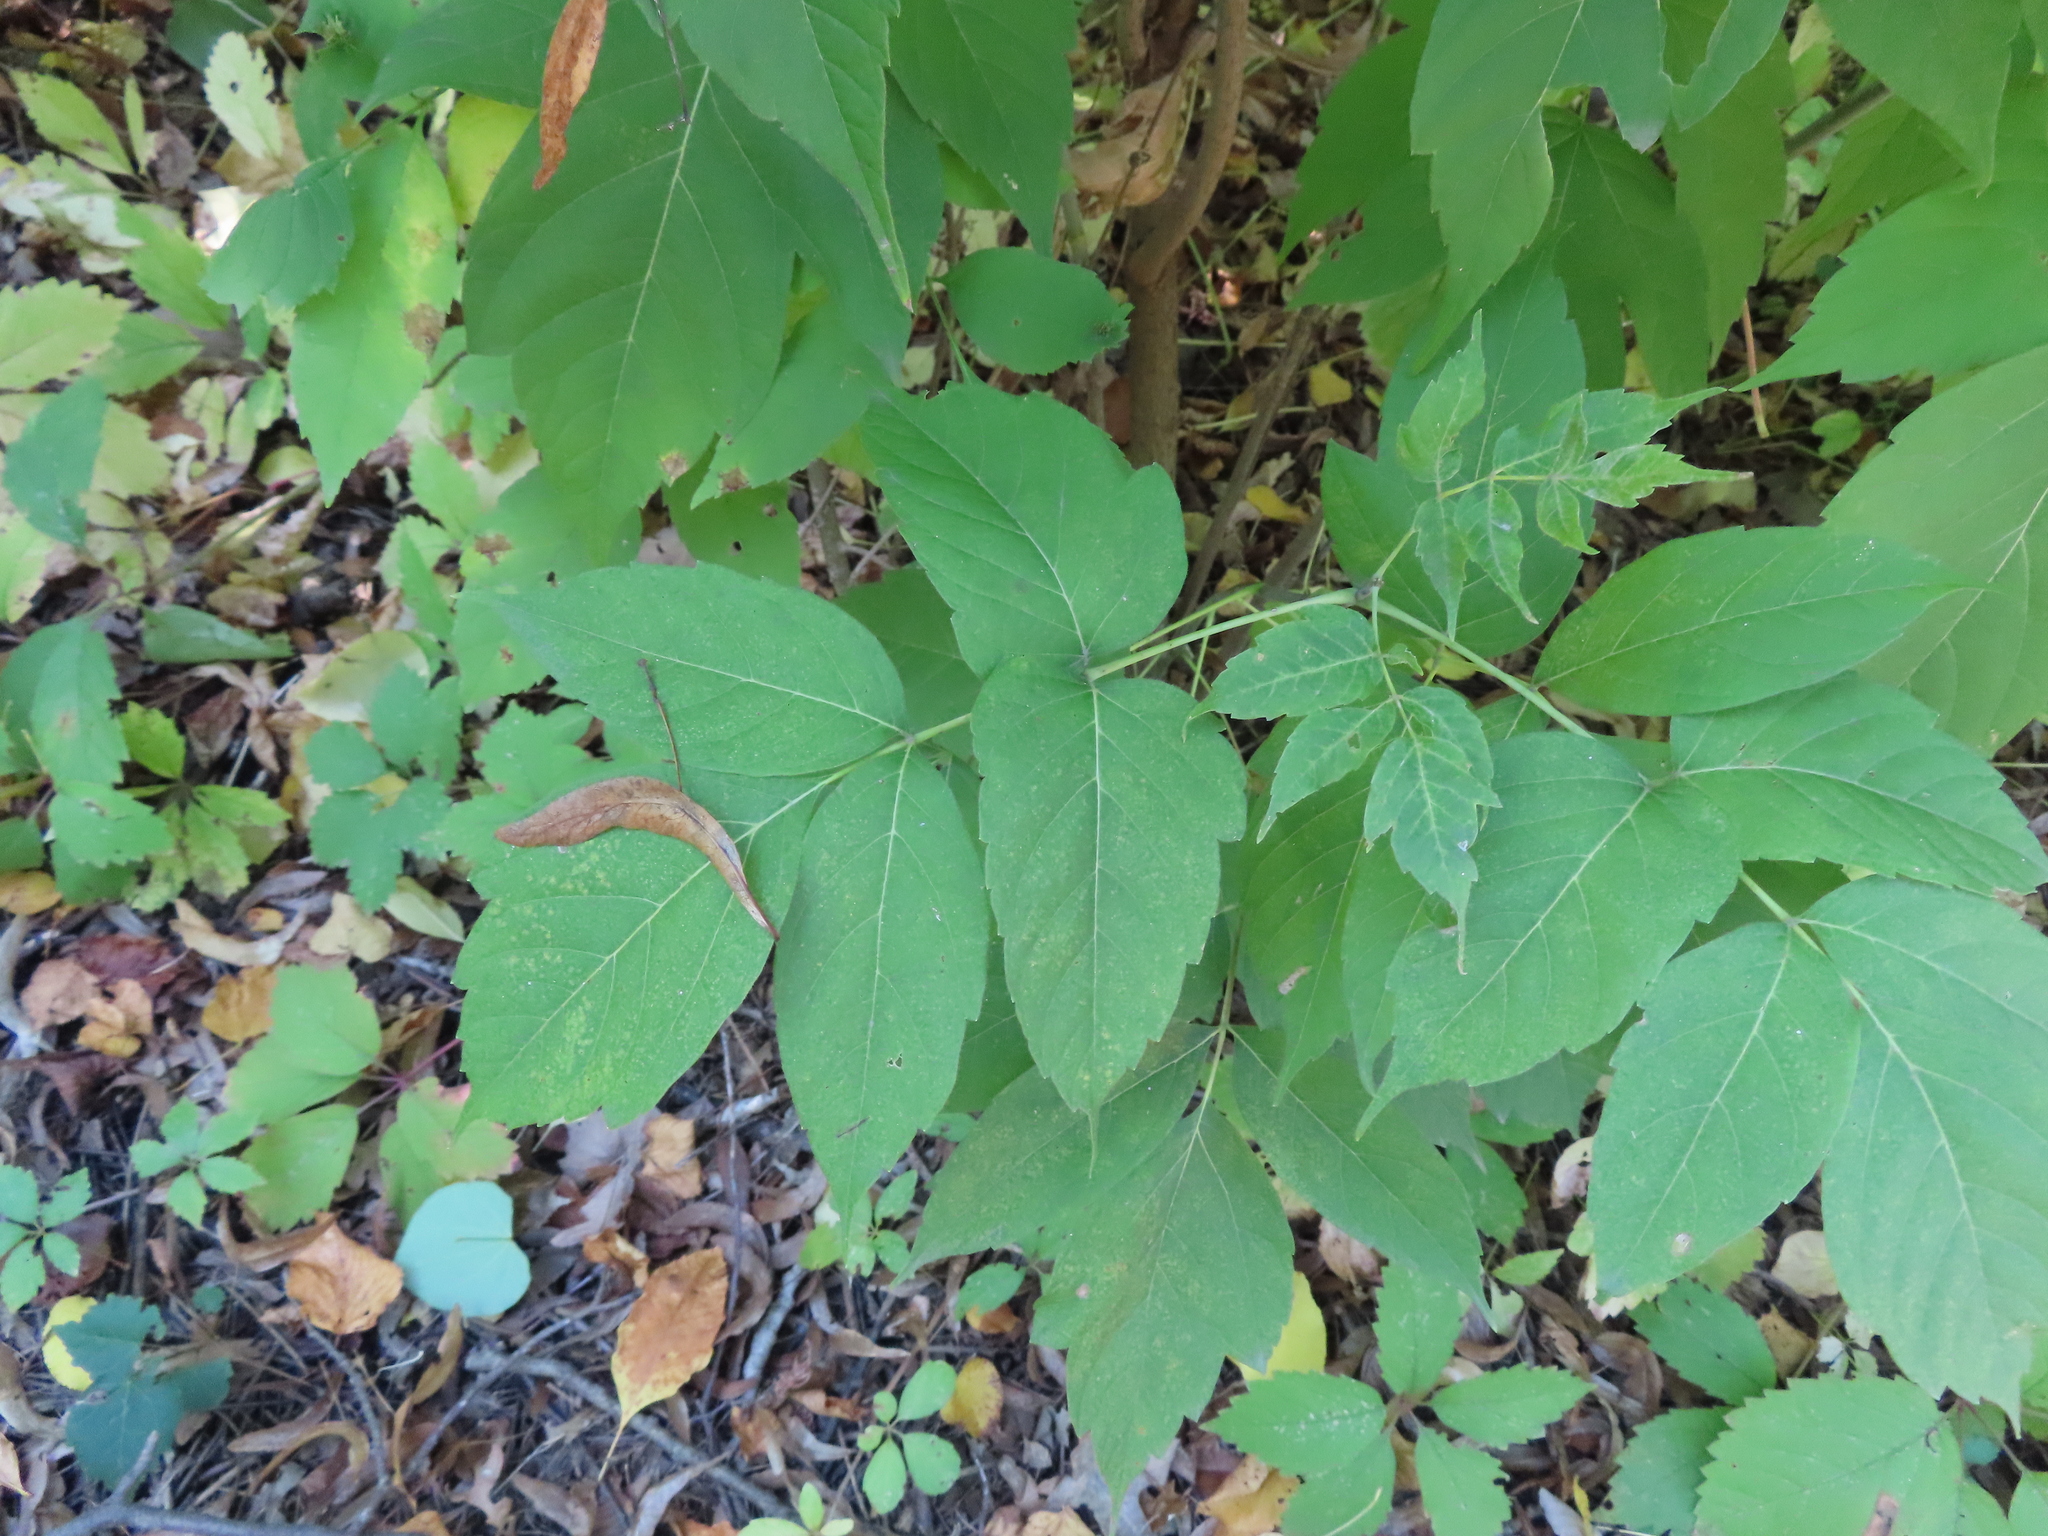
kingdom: Plantae
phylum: Tracheophyta
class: Magnoliopsida
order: Sapindales
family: Sapindaceae
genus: Acer
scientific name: Acer negundo
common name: Ashleaf maple
